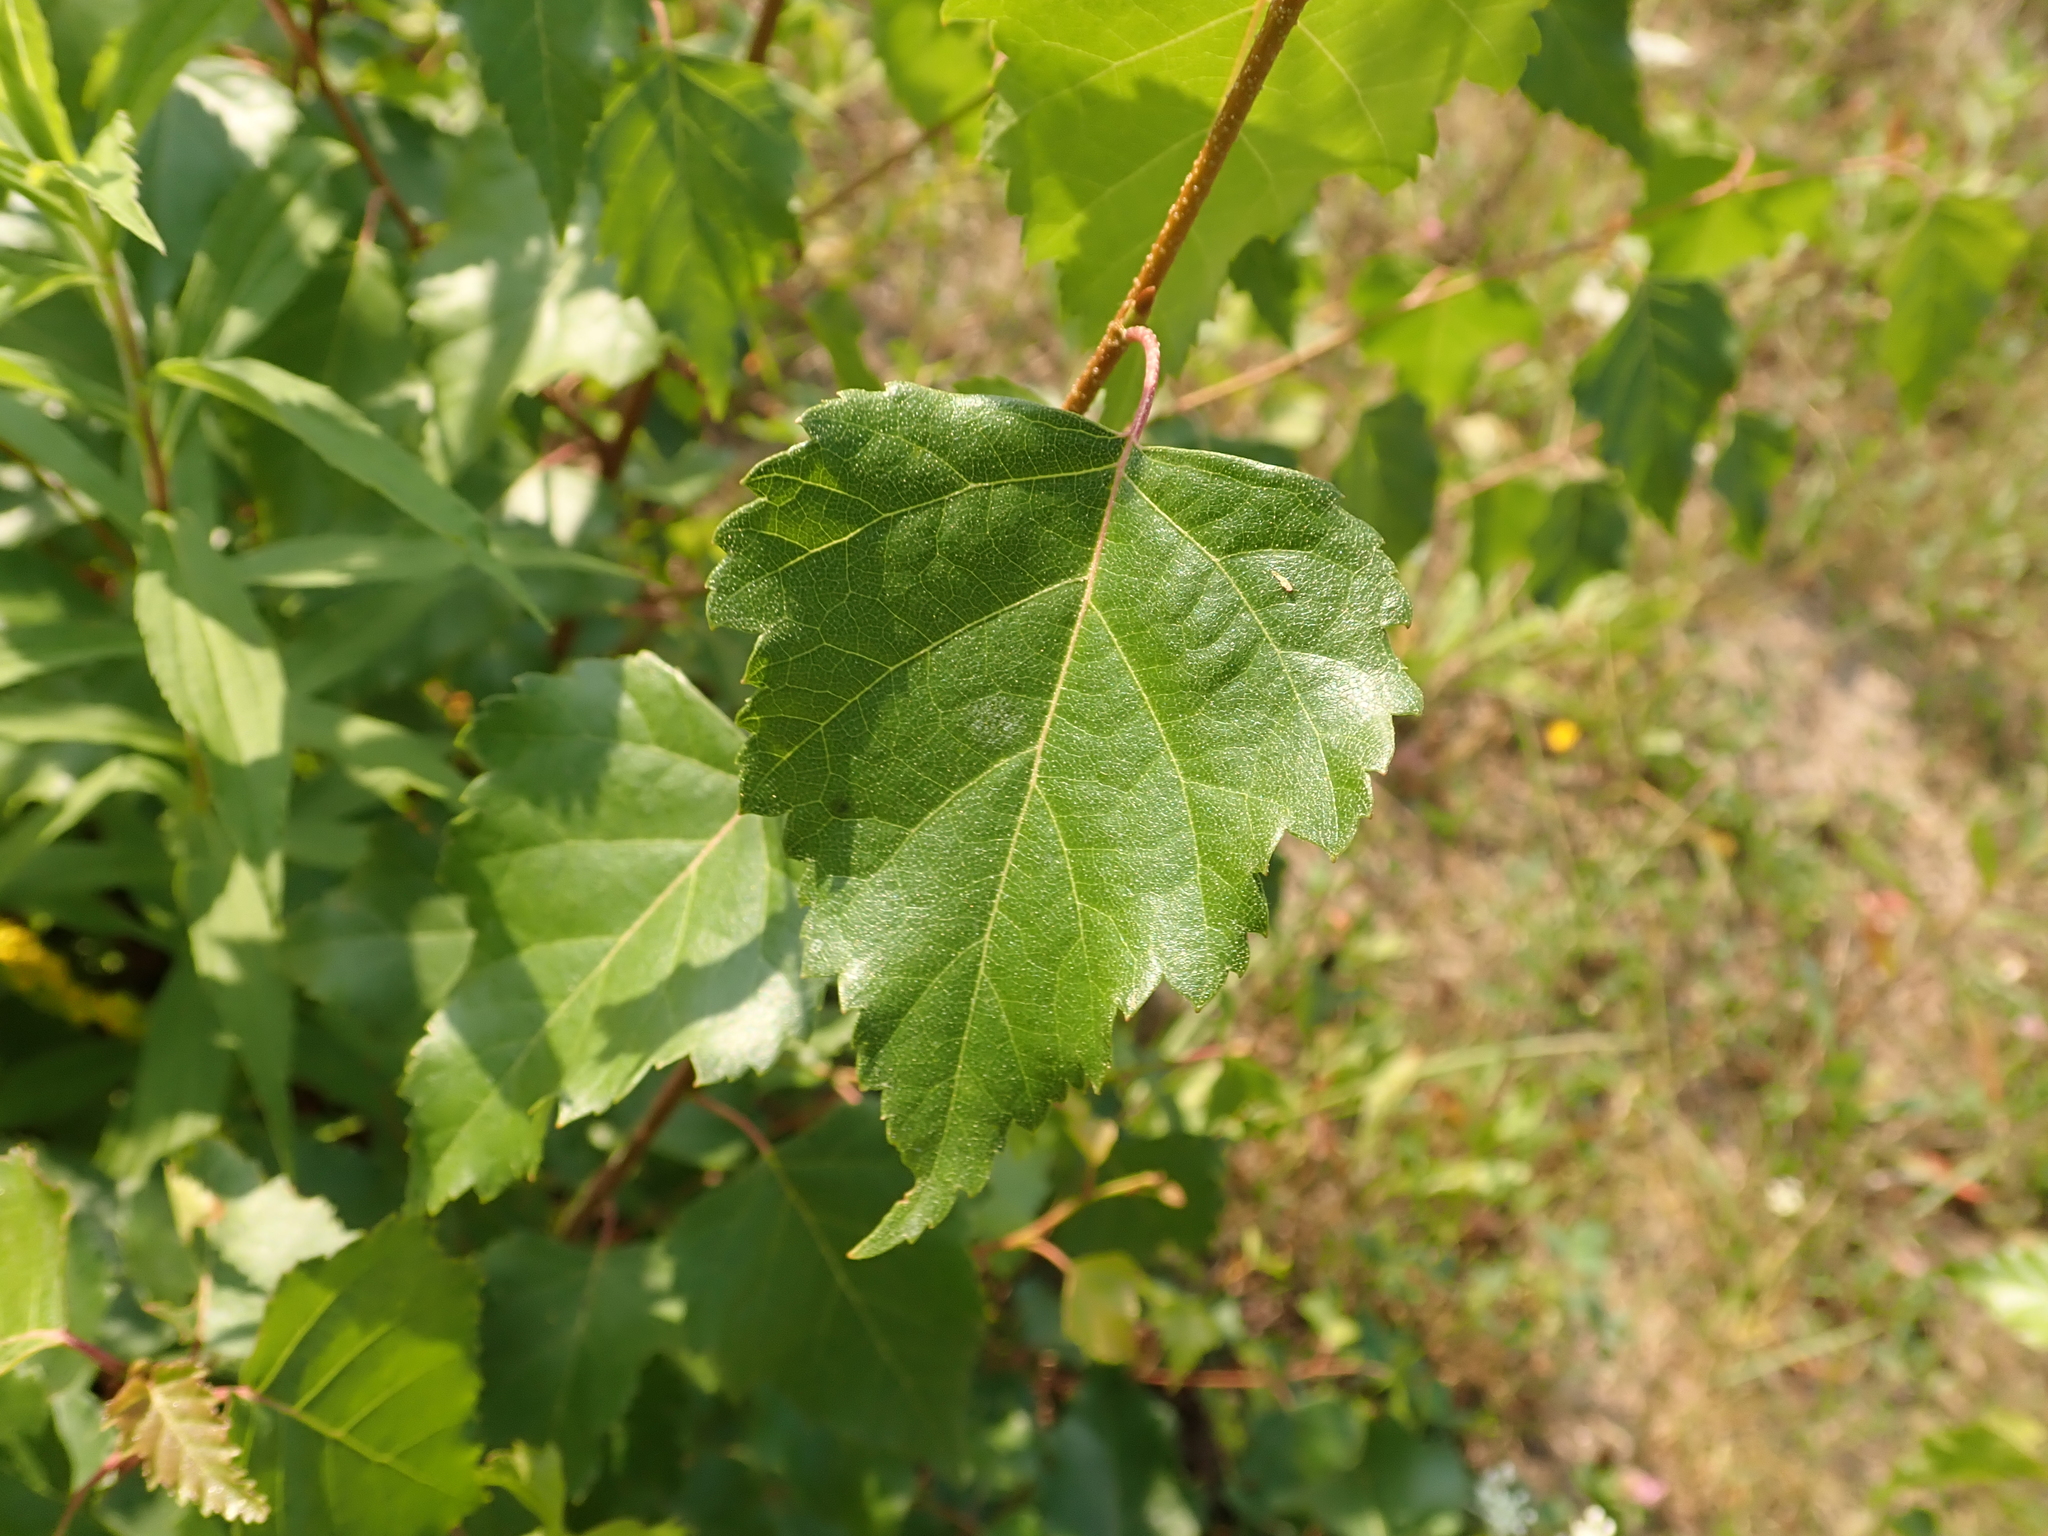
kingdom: Plantae
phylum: Tracheophyta
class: Magnoliopsida
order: Fagales
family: Betulaceae
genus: Betula
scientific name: Betula pendula
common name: Silver birch
